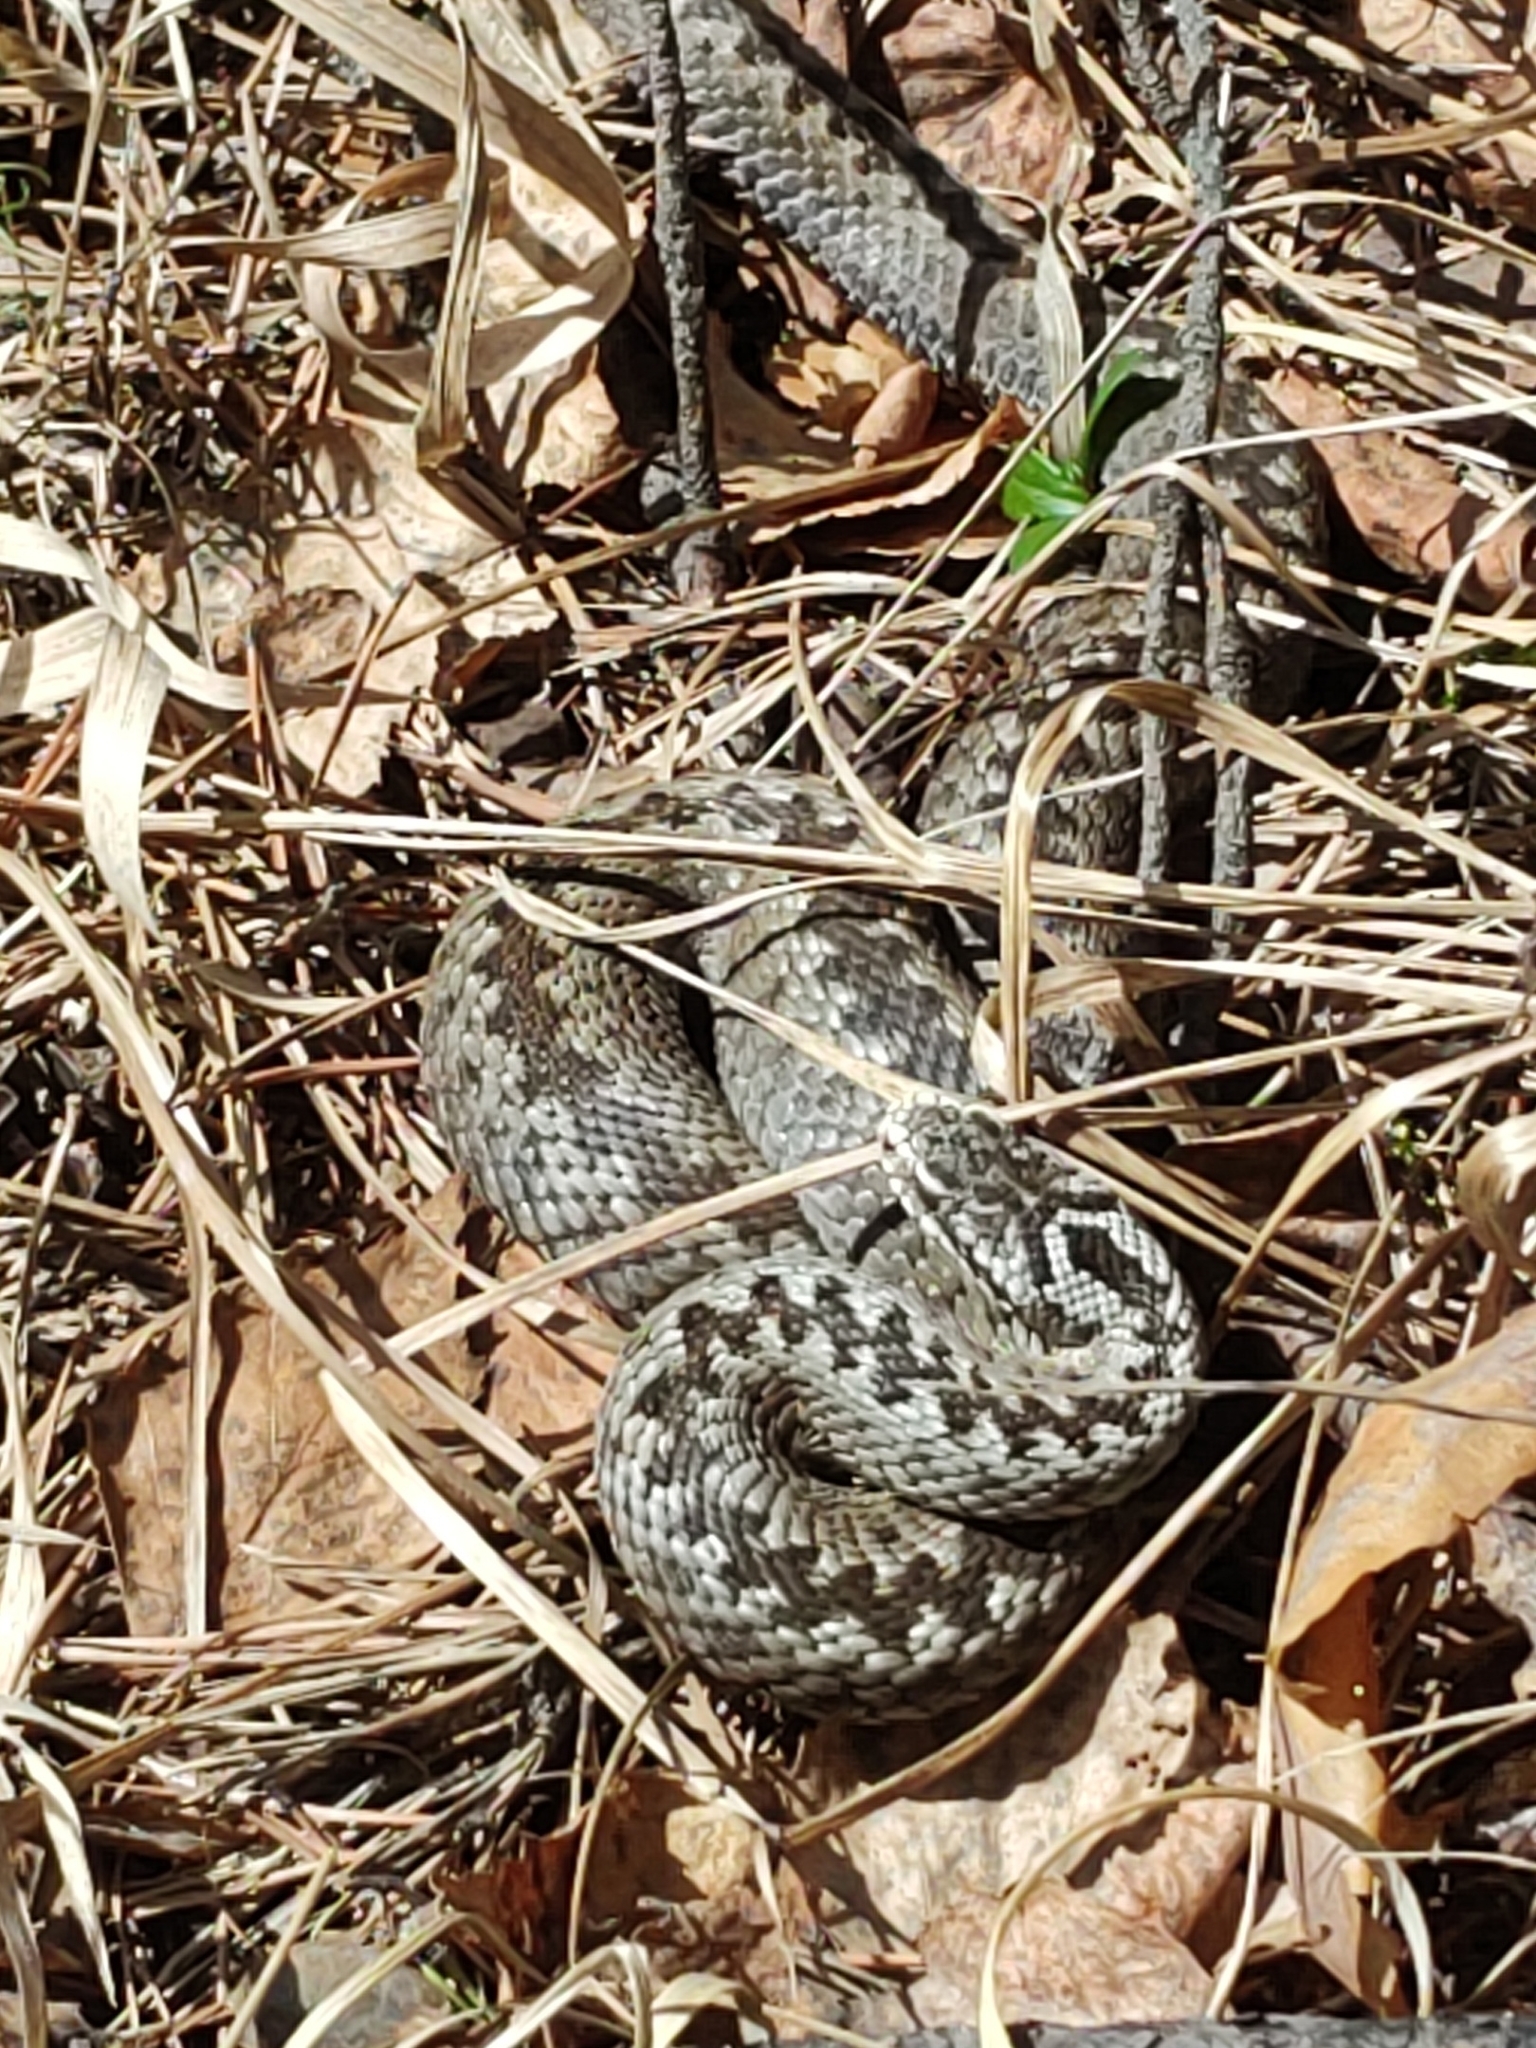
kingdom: Animalia
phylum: Chordata
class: Squamata
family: Viperidae
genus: Vipera
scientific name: Vipera berus
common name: Adder
